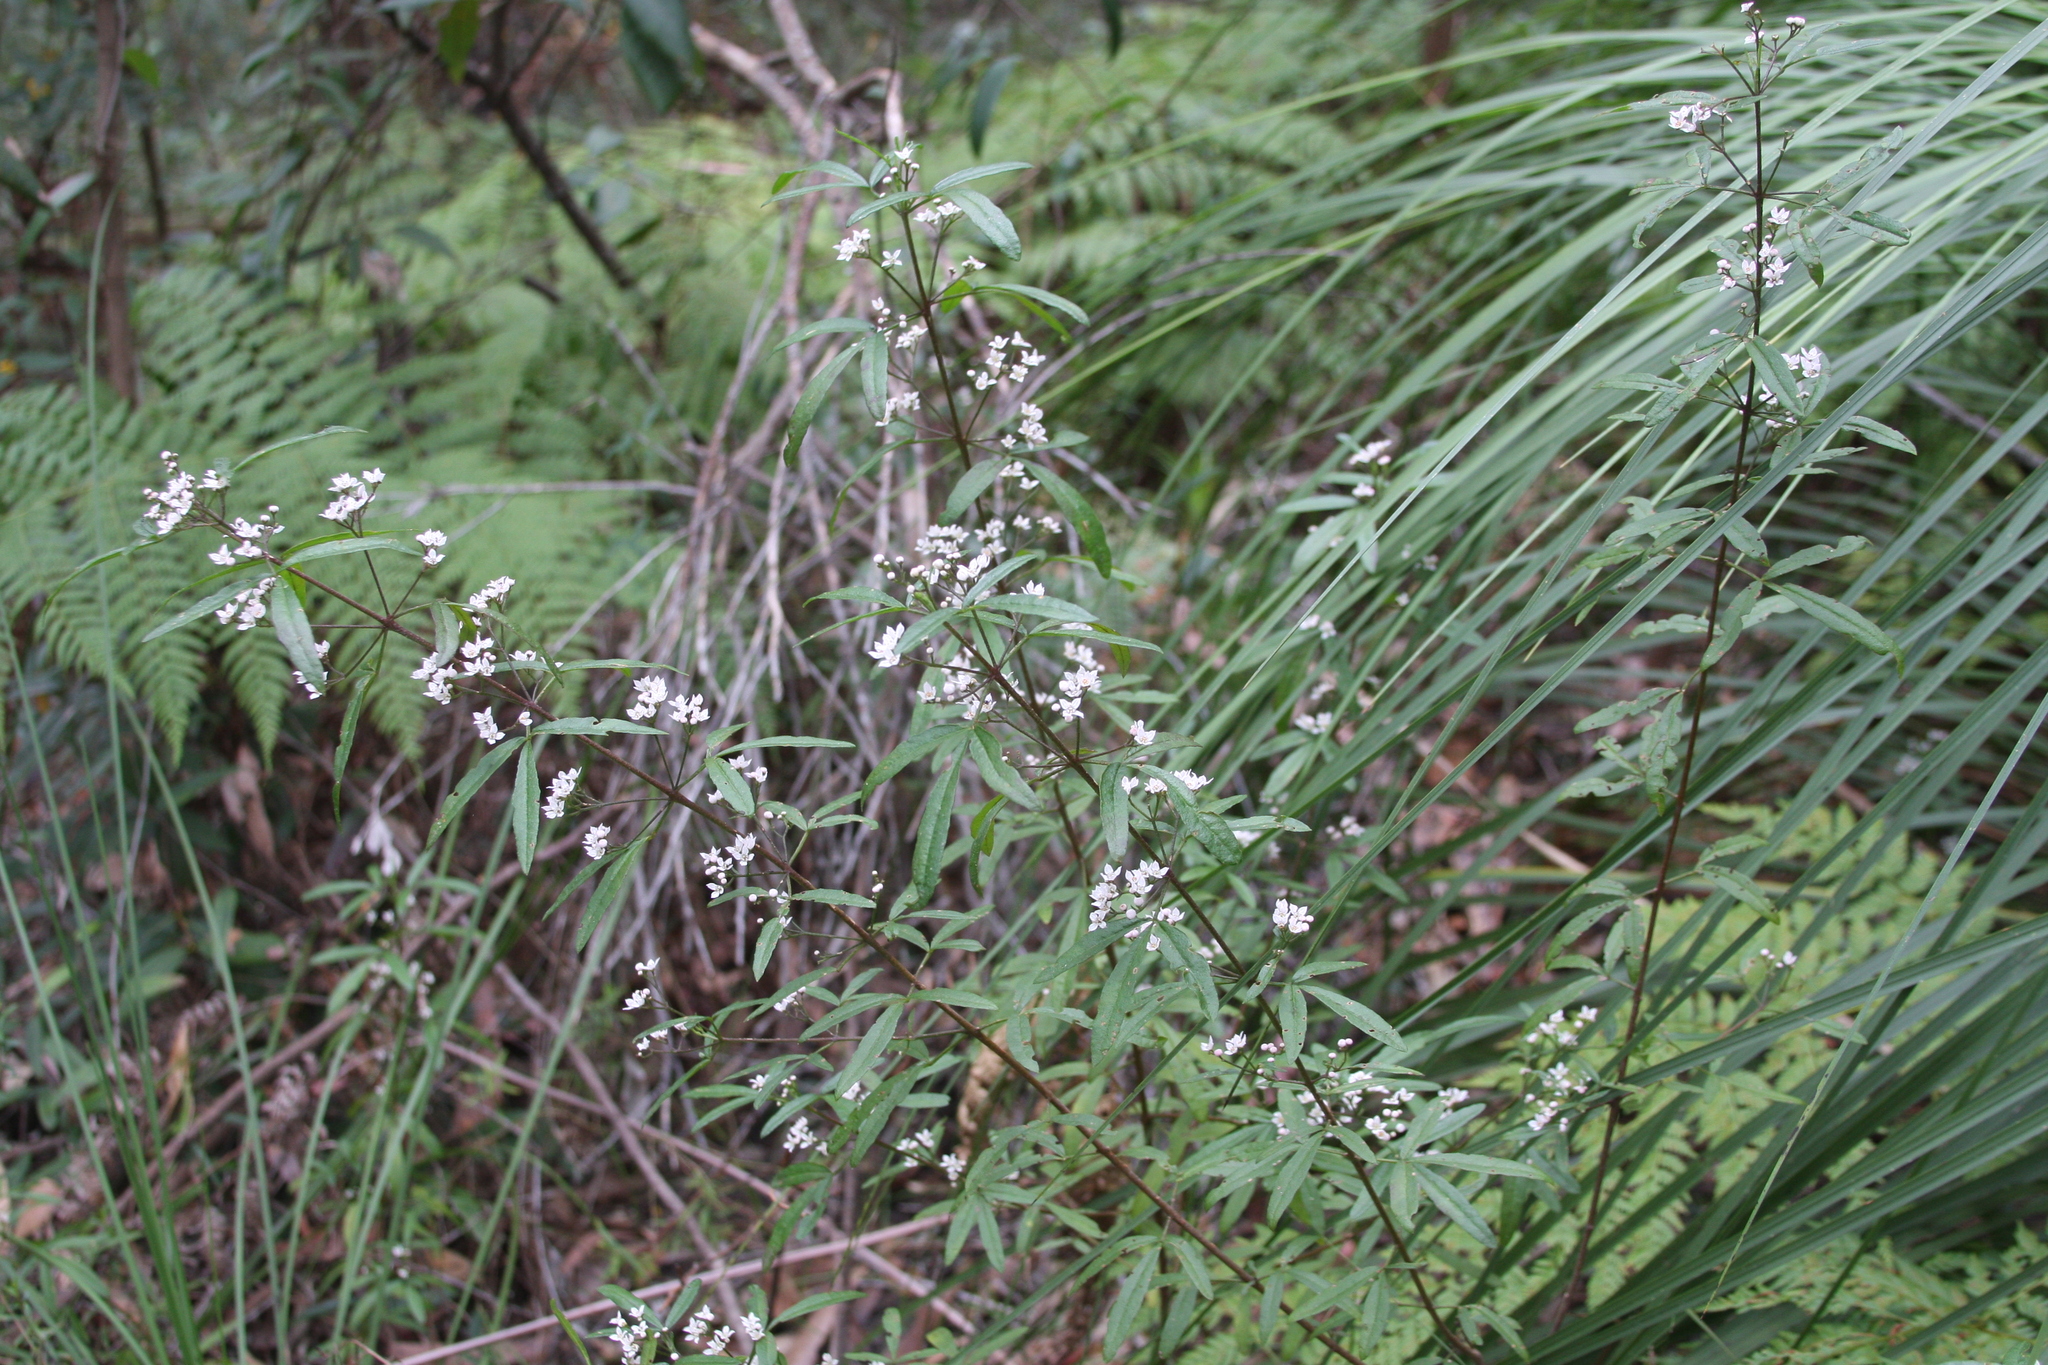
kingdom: Plantae
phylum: Tracheophyta
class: Magnoliopsida
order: Sapindales
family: Rutaceae
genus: Zieria
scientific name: Zieria smithii
